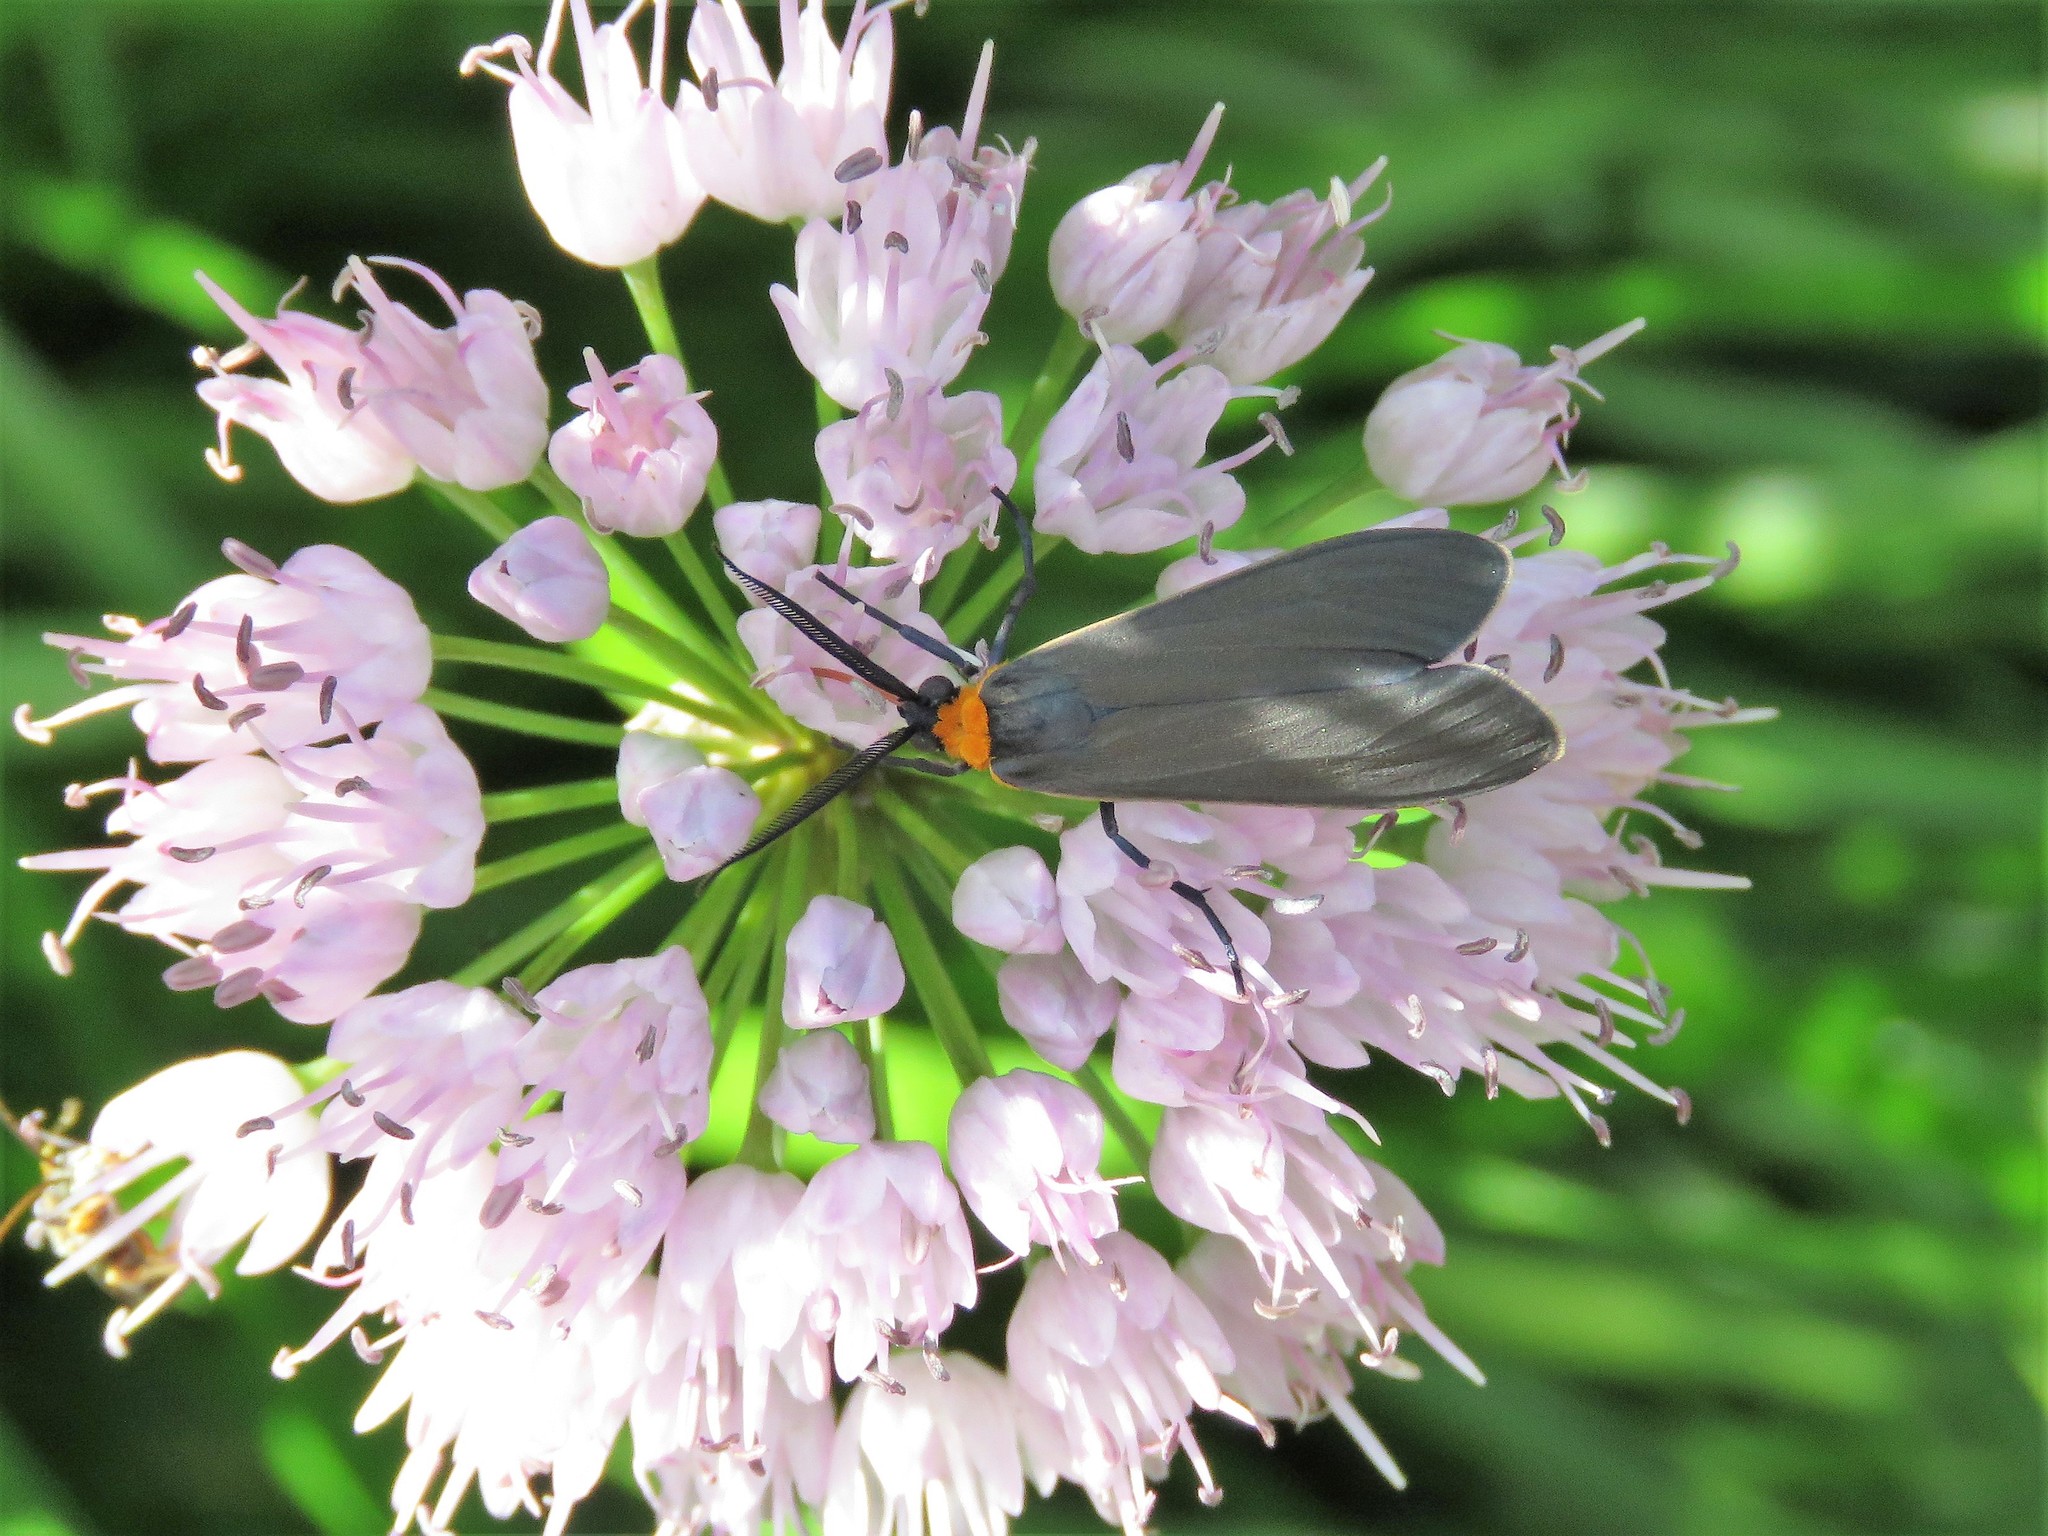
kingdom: Animalia
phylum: Arthropoda
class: Insecta
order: Lepidoptera
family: Erebidae
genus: Cisseps
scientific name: Cisseps fulvicollis
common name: Yellow-collared scape moth
